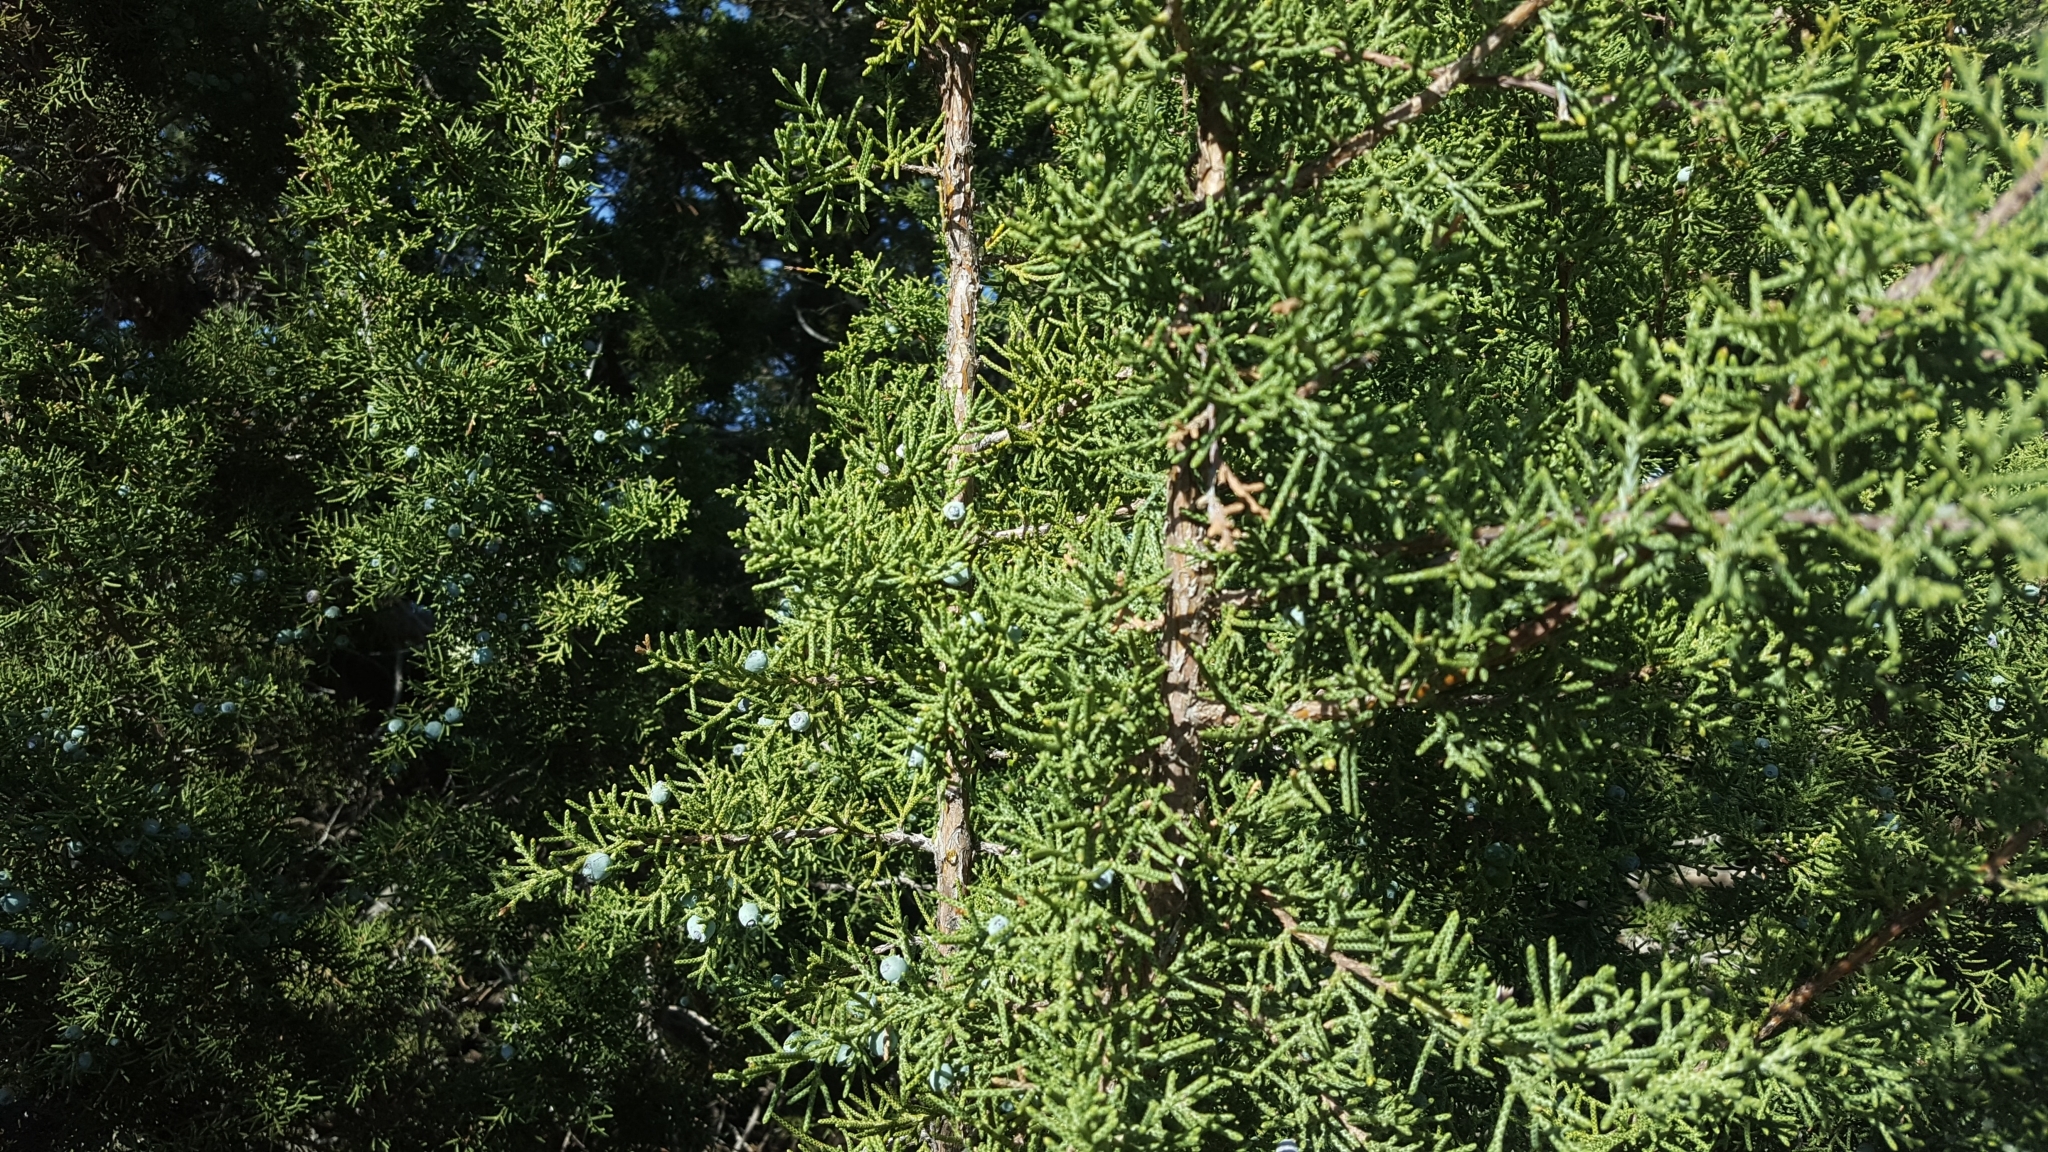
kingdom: Plantae
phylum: Tracheophyta
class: Pinopsida
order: Pinales
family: Cupressaceae
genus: Juniperus
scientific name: Juniperus californica
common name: California juniper
